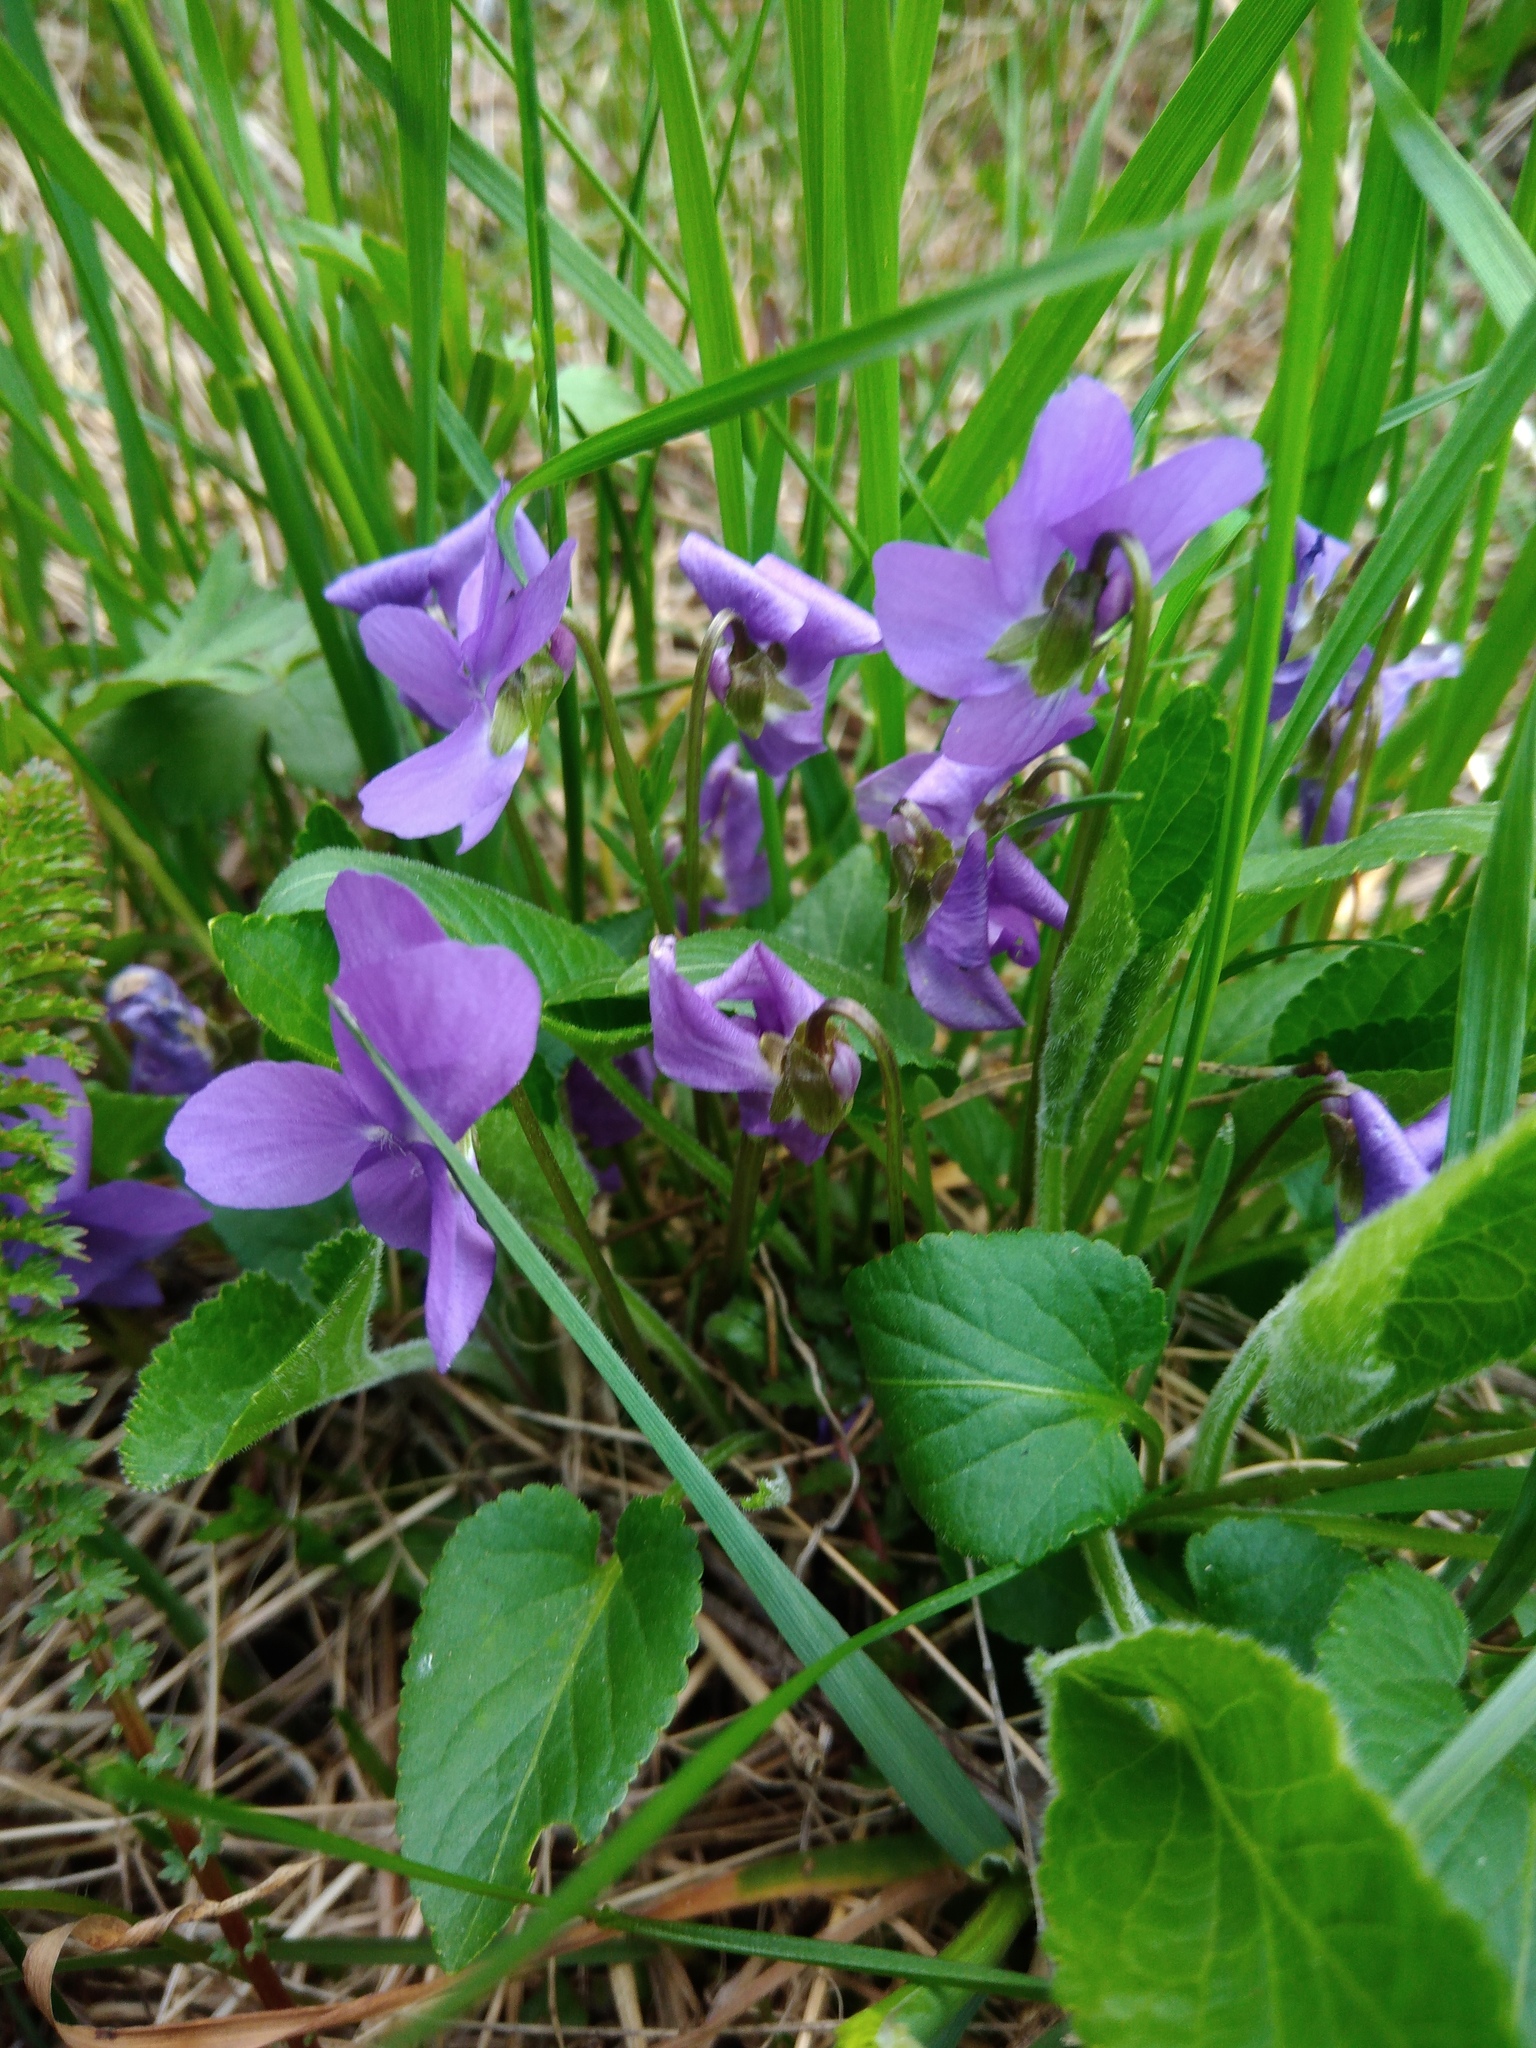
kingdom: Plantae
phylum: Tracheophyta
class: Magnoliopsida
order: Malpighiales
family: Violaceae
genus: Viola
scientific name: Viola hirta
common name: Hairy violet
